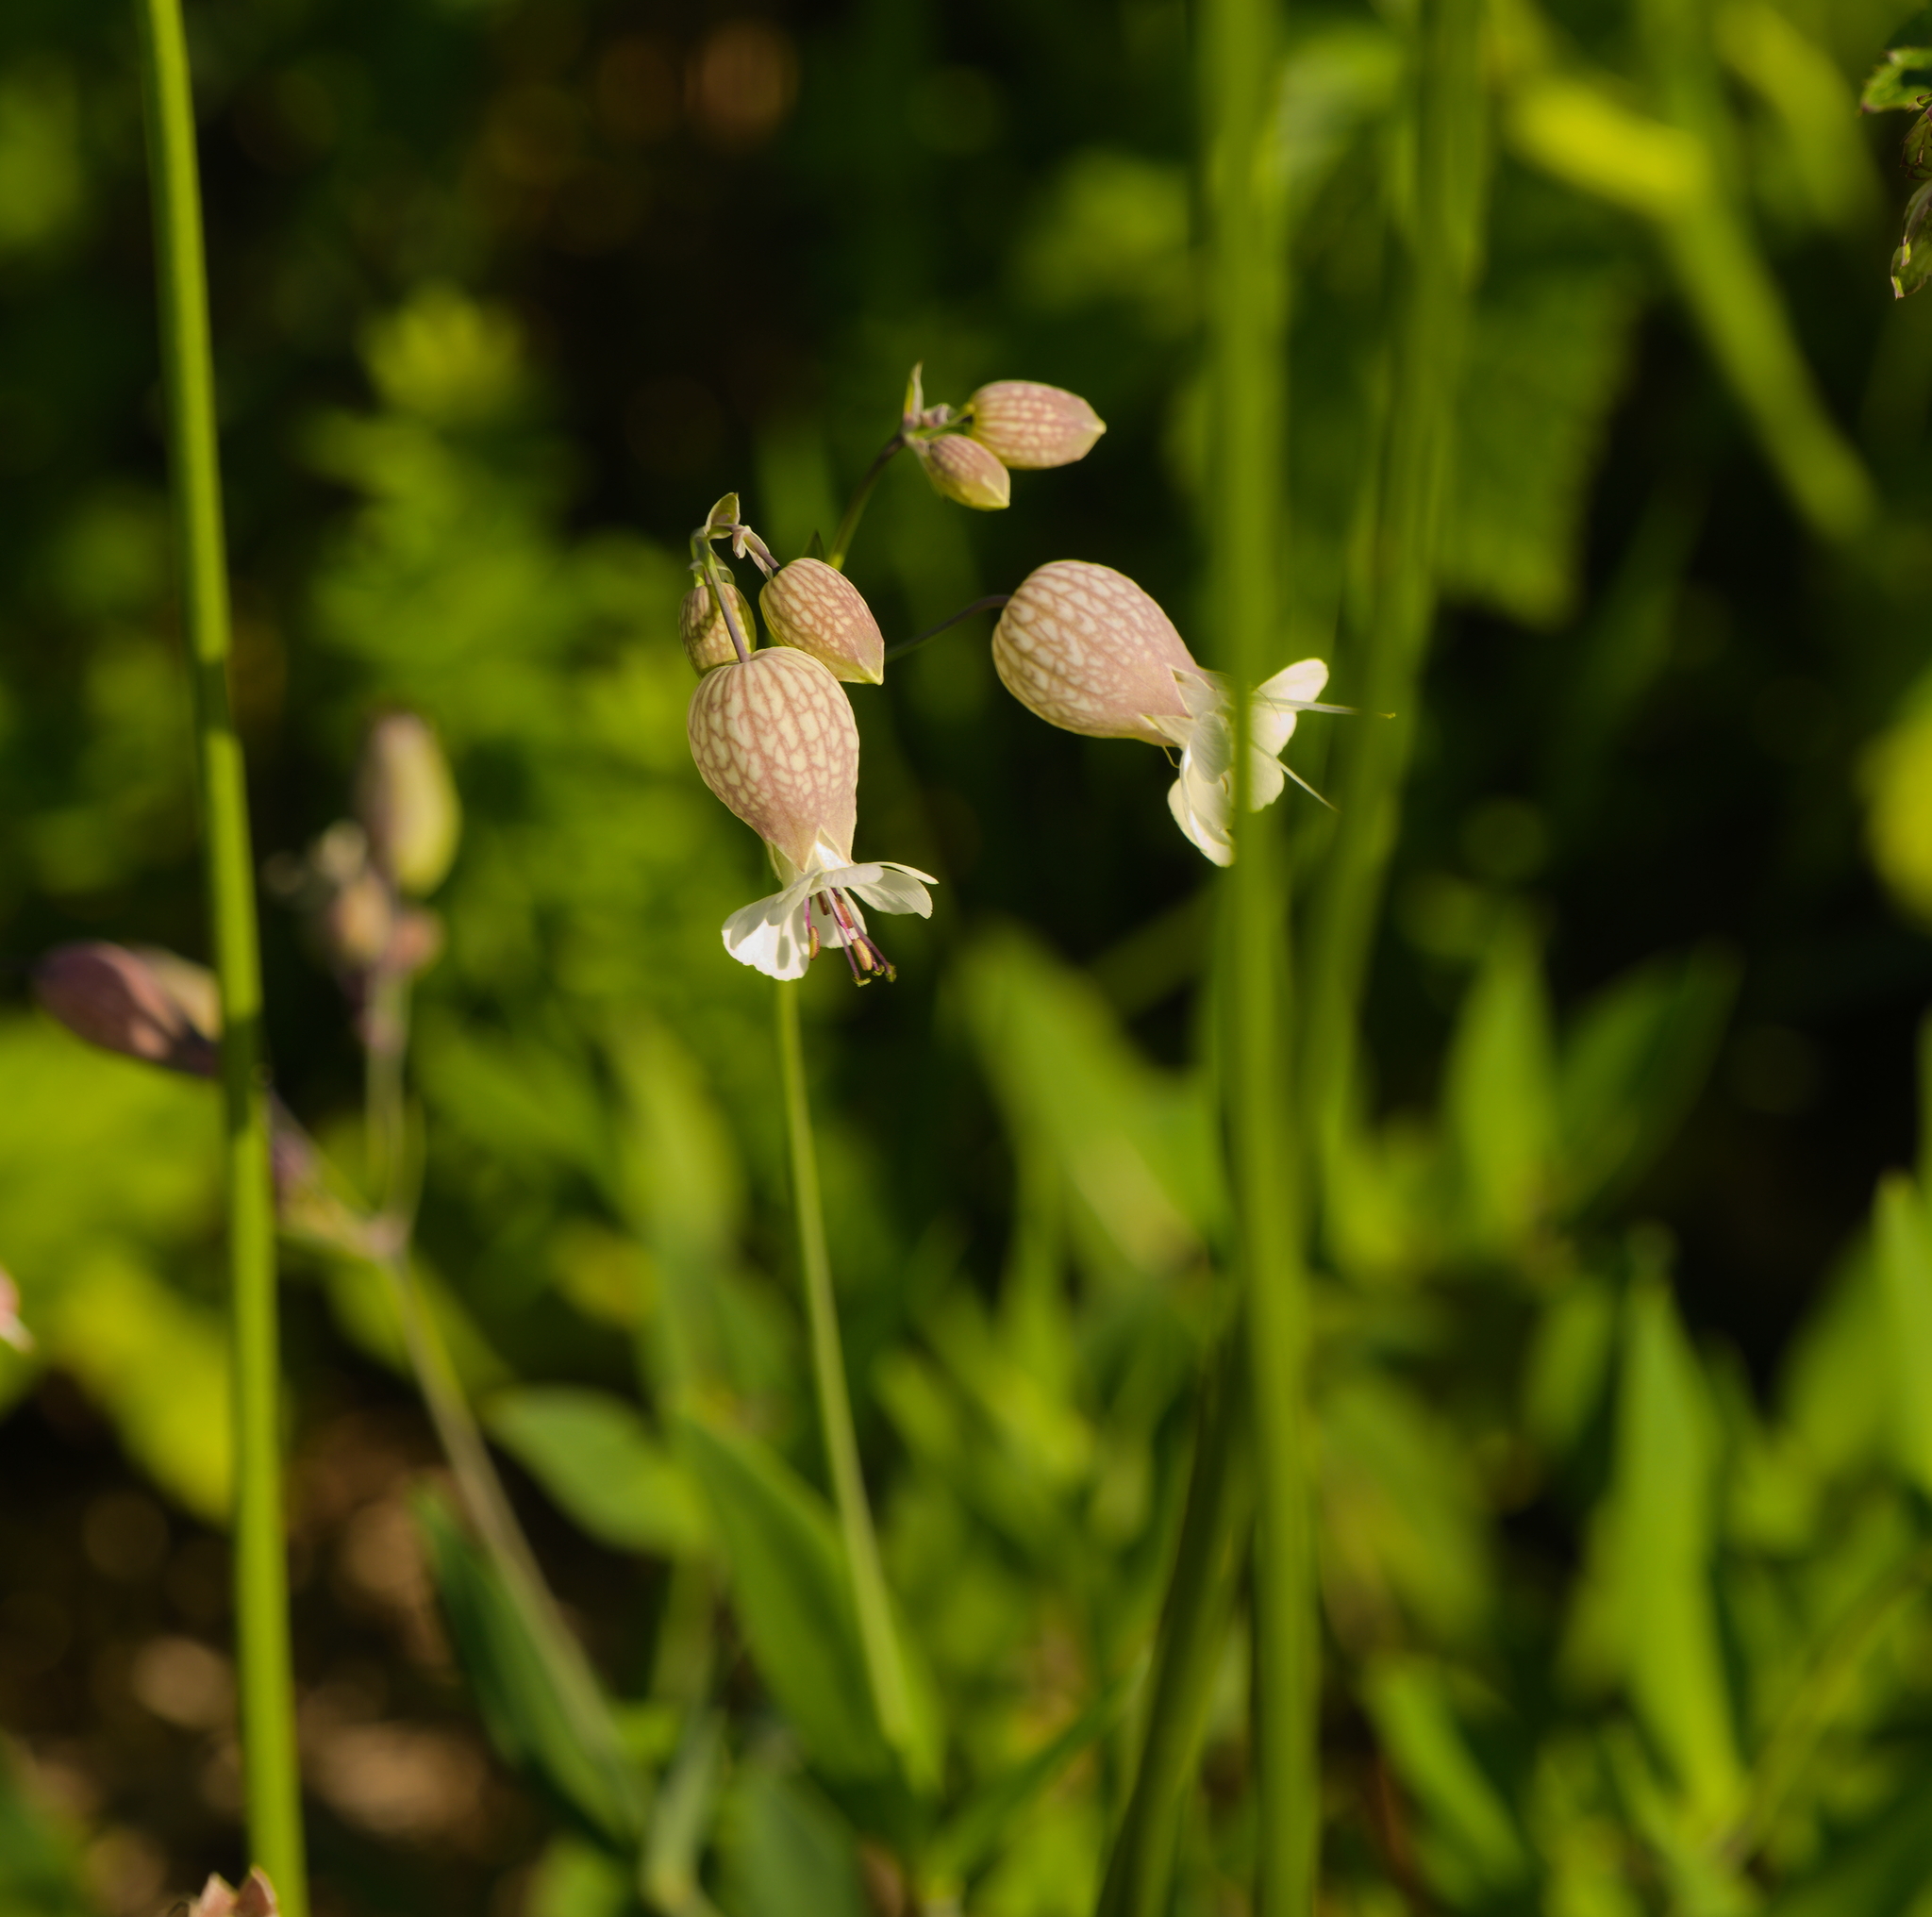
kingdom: Plantae
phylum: Tracheophyta
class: Magnoliopsida
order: Caryophyllales
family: Caryophyllaceae
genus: Silene
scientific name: Silene vulgaris
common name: Bladder campion
